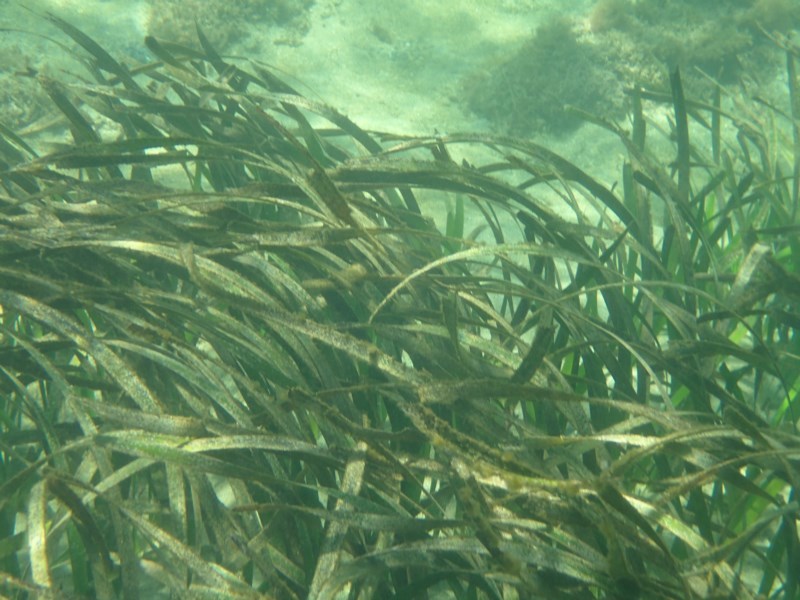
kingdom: Plantae
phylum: Tracheophyta
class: Liliopsida
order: Alismatales
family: Posidoniaceae
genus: Posidonia
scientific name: Posidonia australis
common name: Species code: pa
